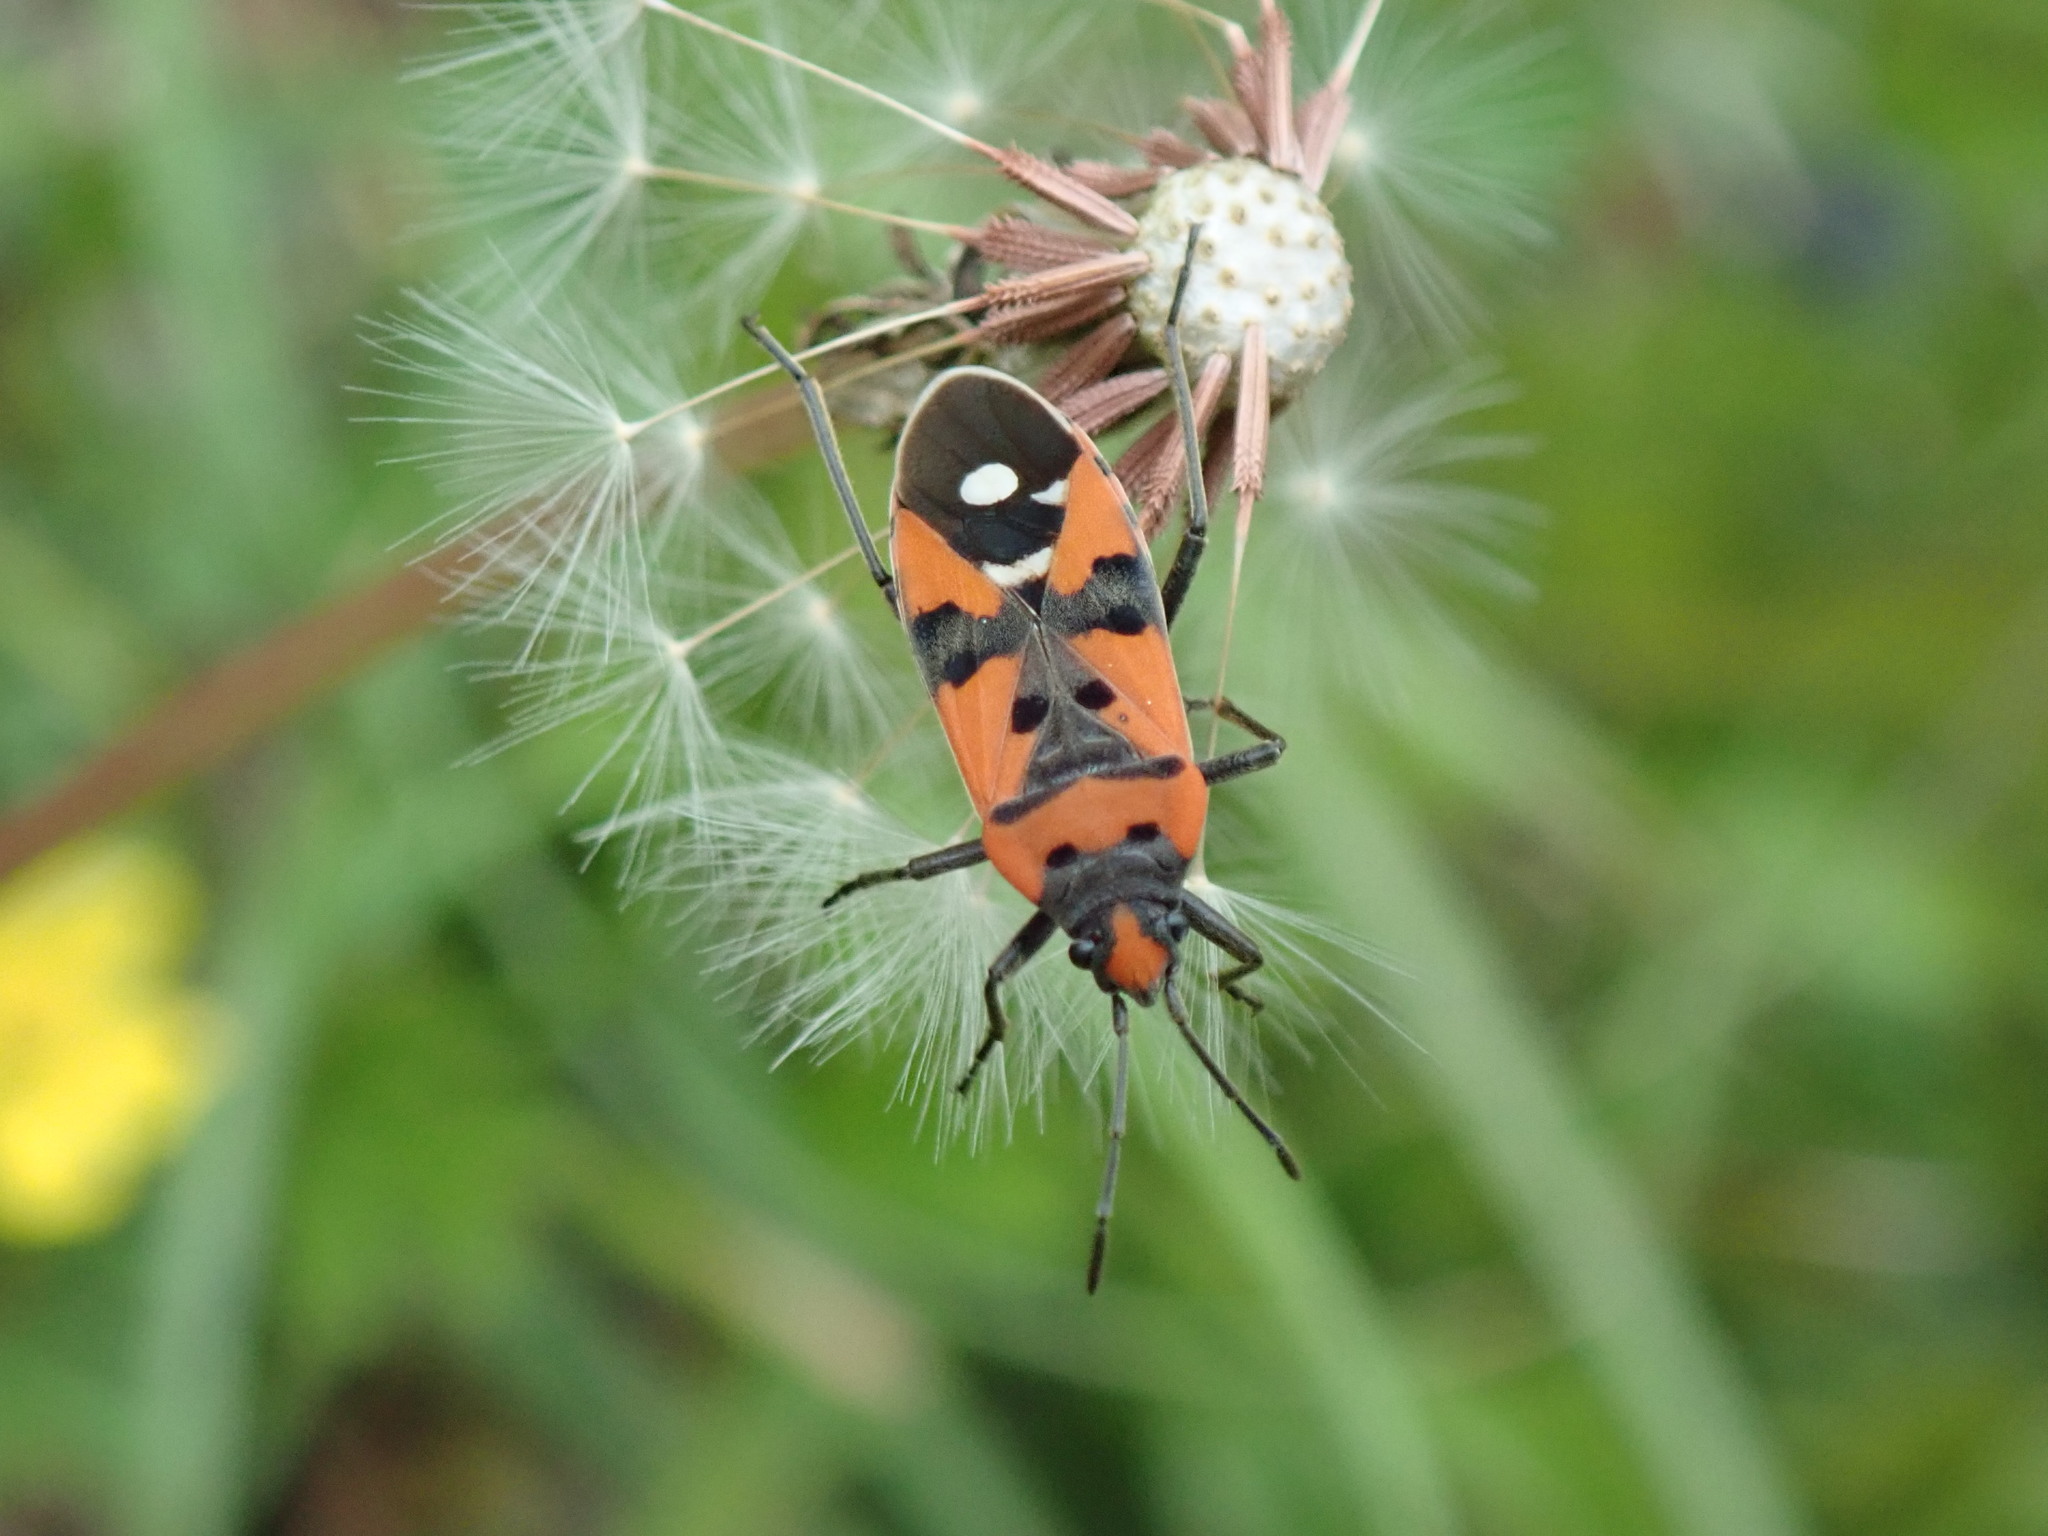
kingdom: Animalia
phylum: Arthropoda
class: Insecta
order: Hemiptera
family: Lygaeidae
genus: Lygaeus
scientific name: Lygaeus equestris
